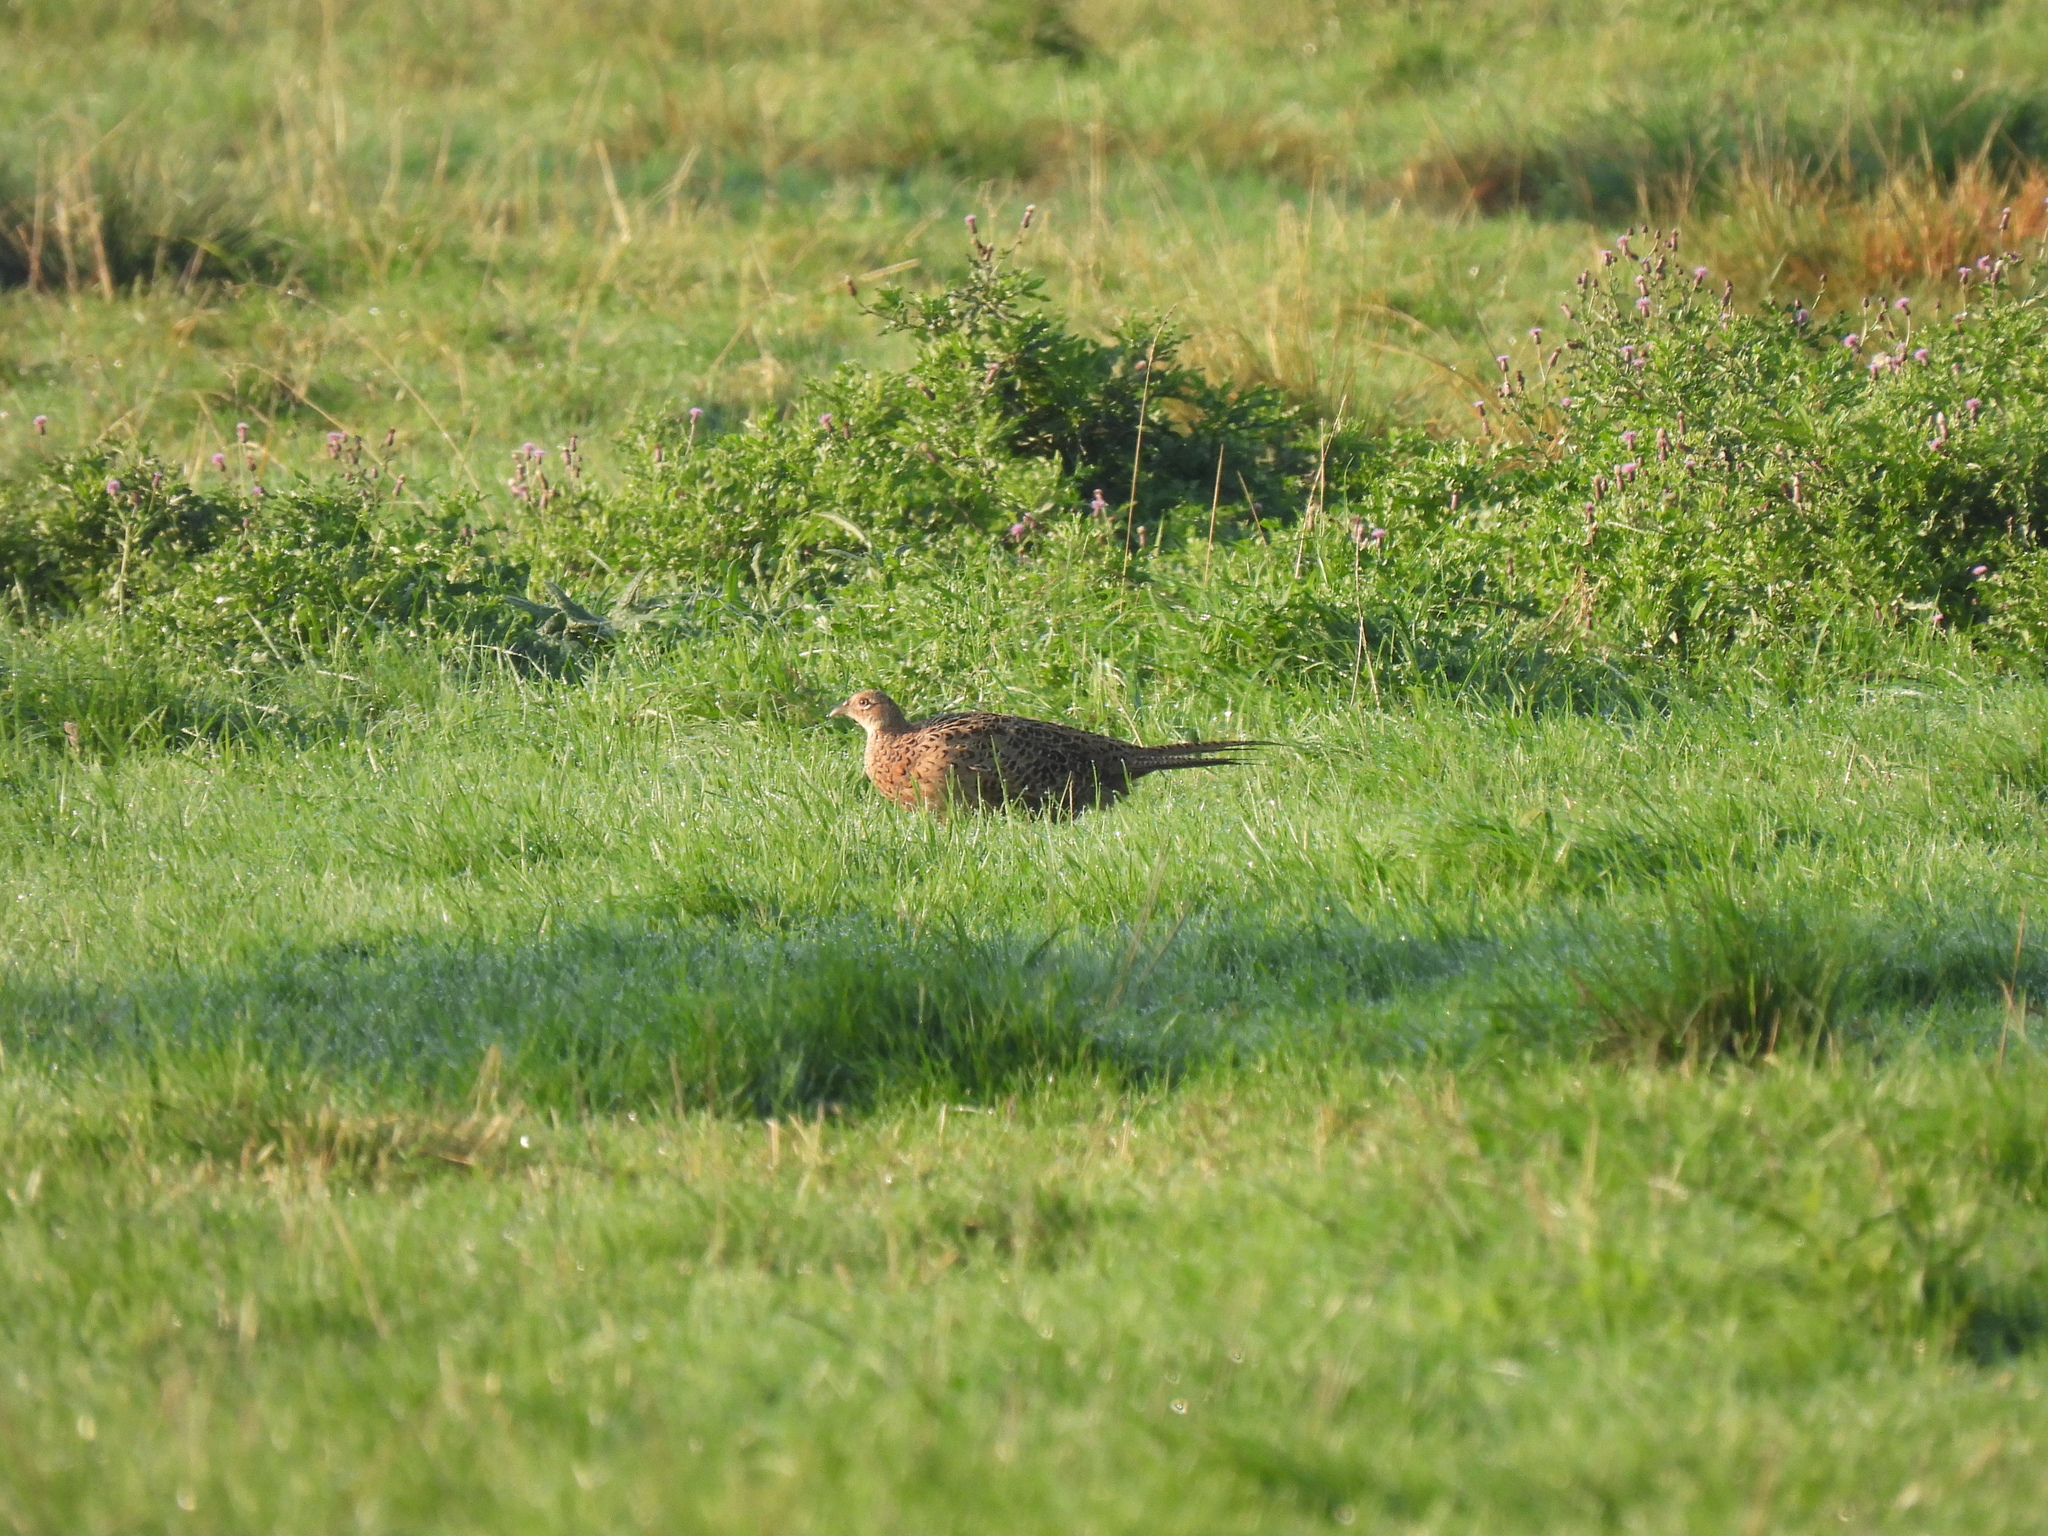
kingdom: Animalia
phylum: Chordata
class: Aves
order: Galliformes
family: Phasianidae
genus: Phasianus
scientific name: Phasianus colchicus
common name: Common pheasant
